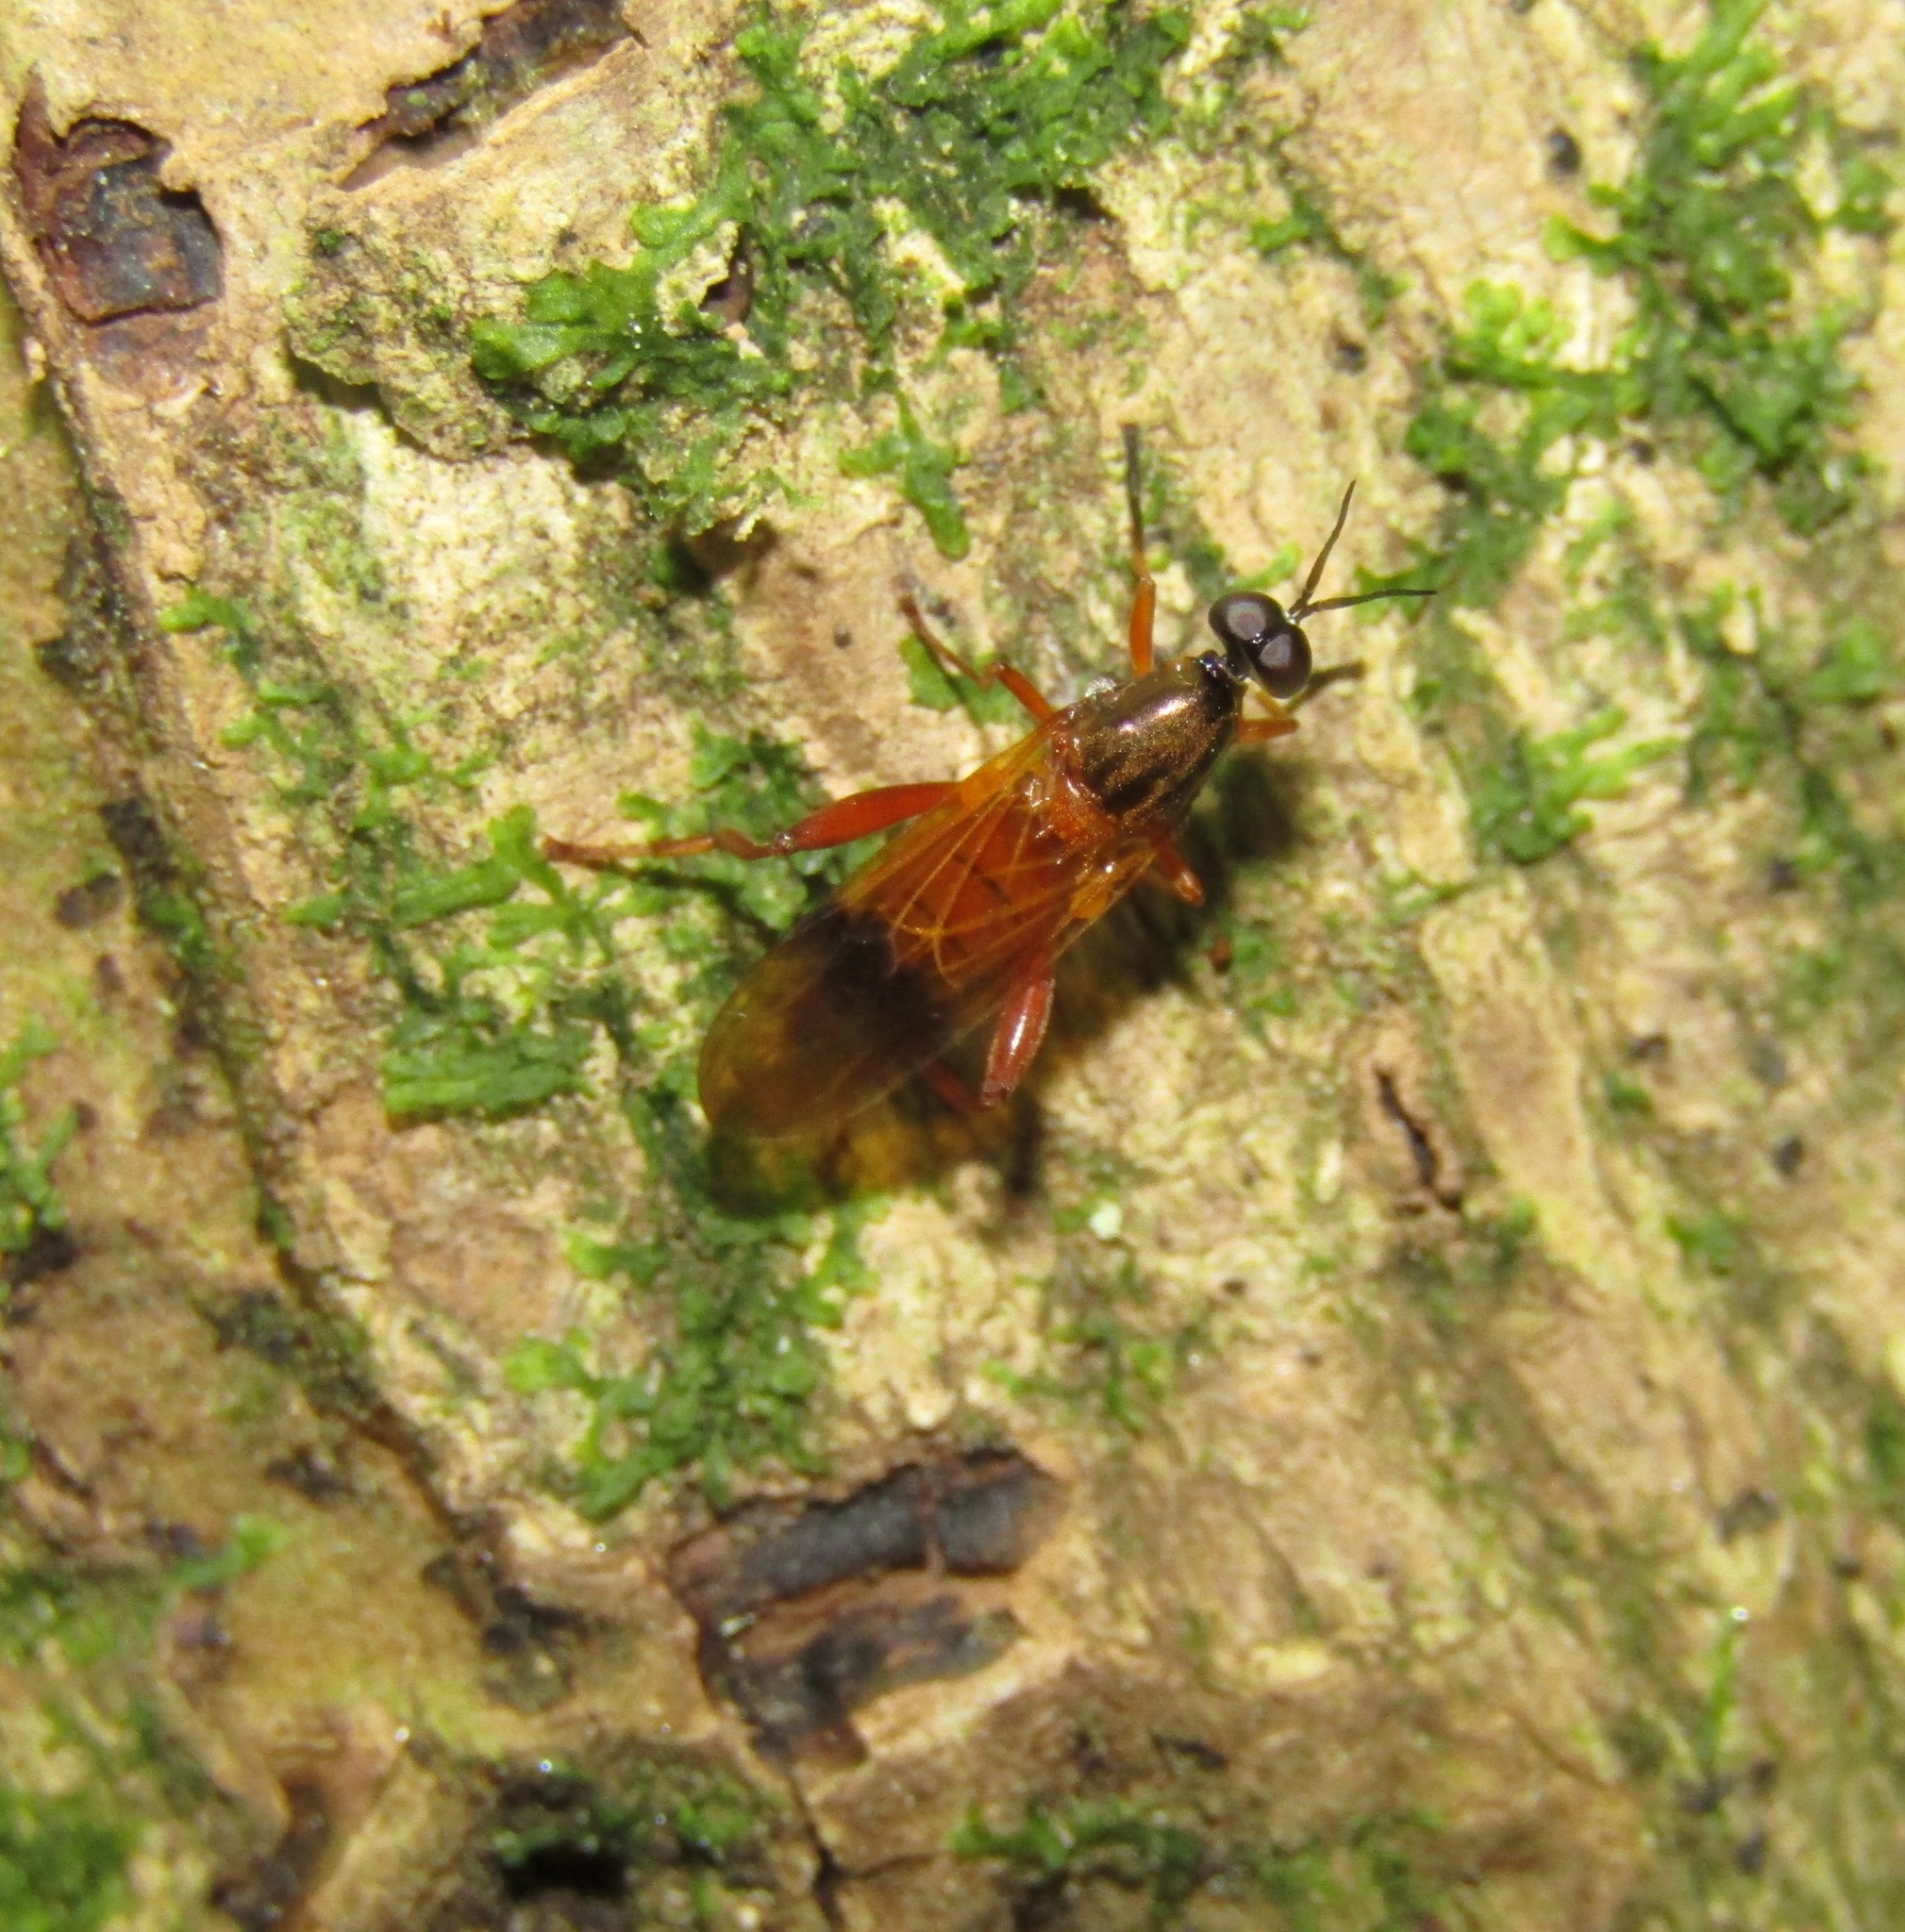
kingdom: Animalia
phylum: Arthropoda
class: Insecta
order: Diptera
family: Stratiomyidae
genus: Benhamyia
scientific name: Benhamyia apicalis
